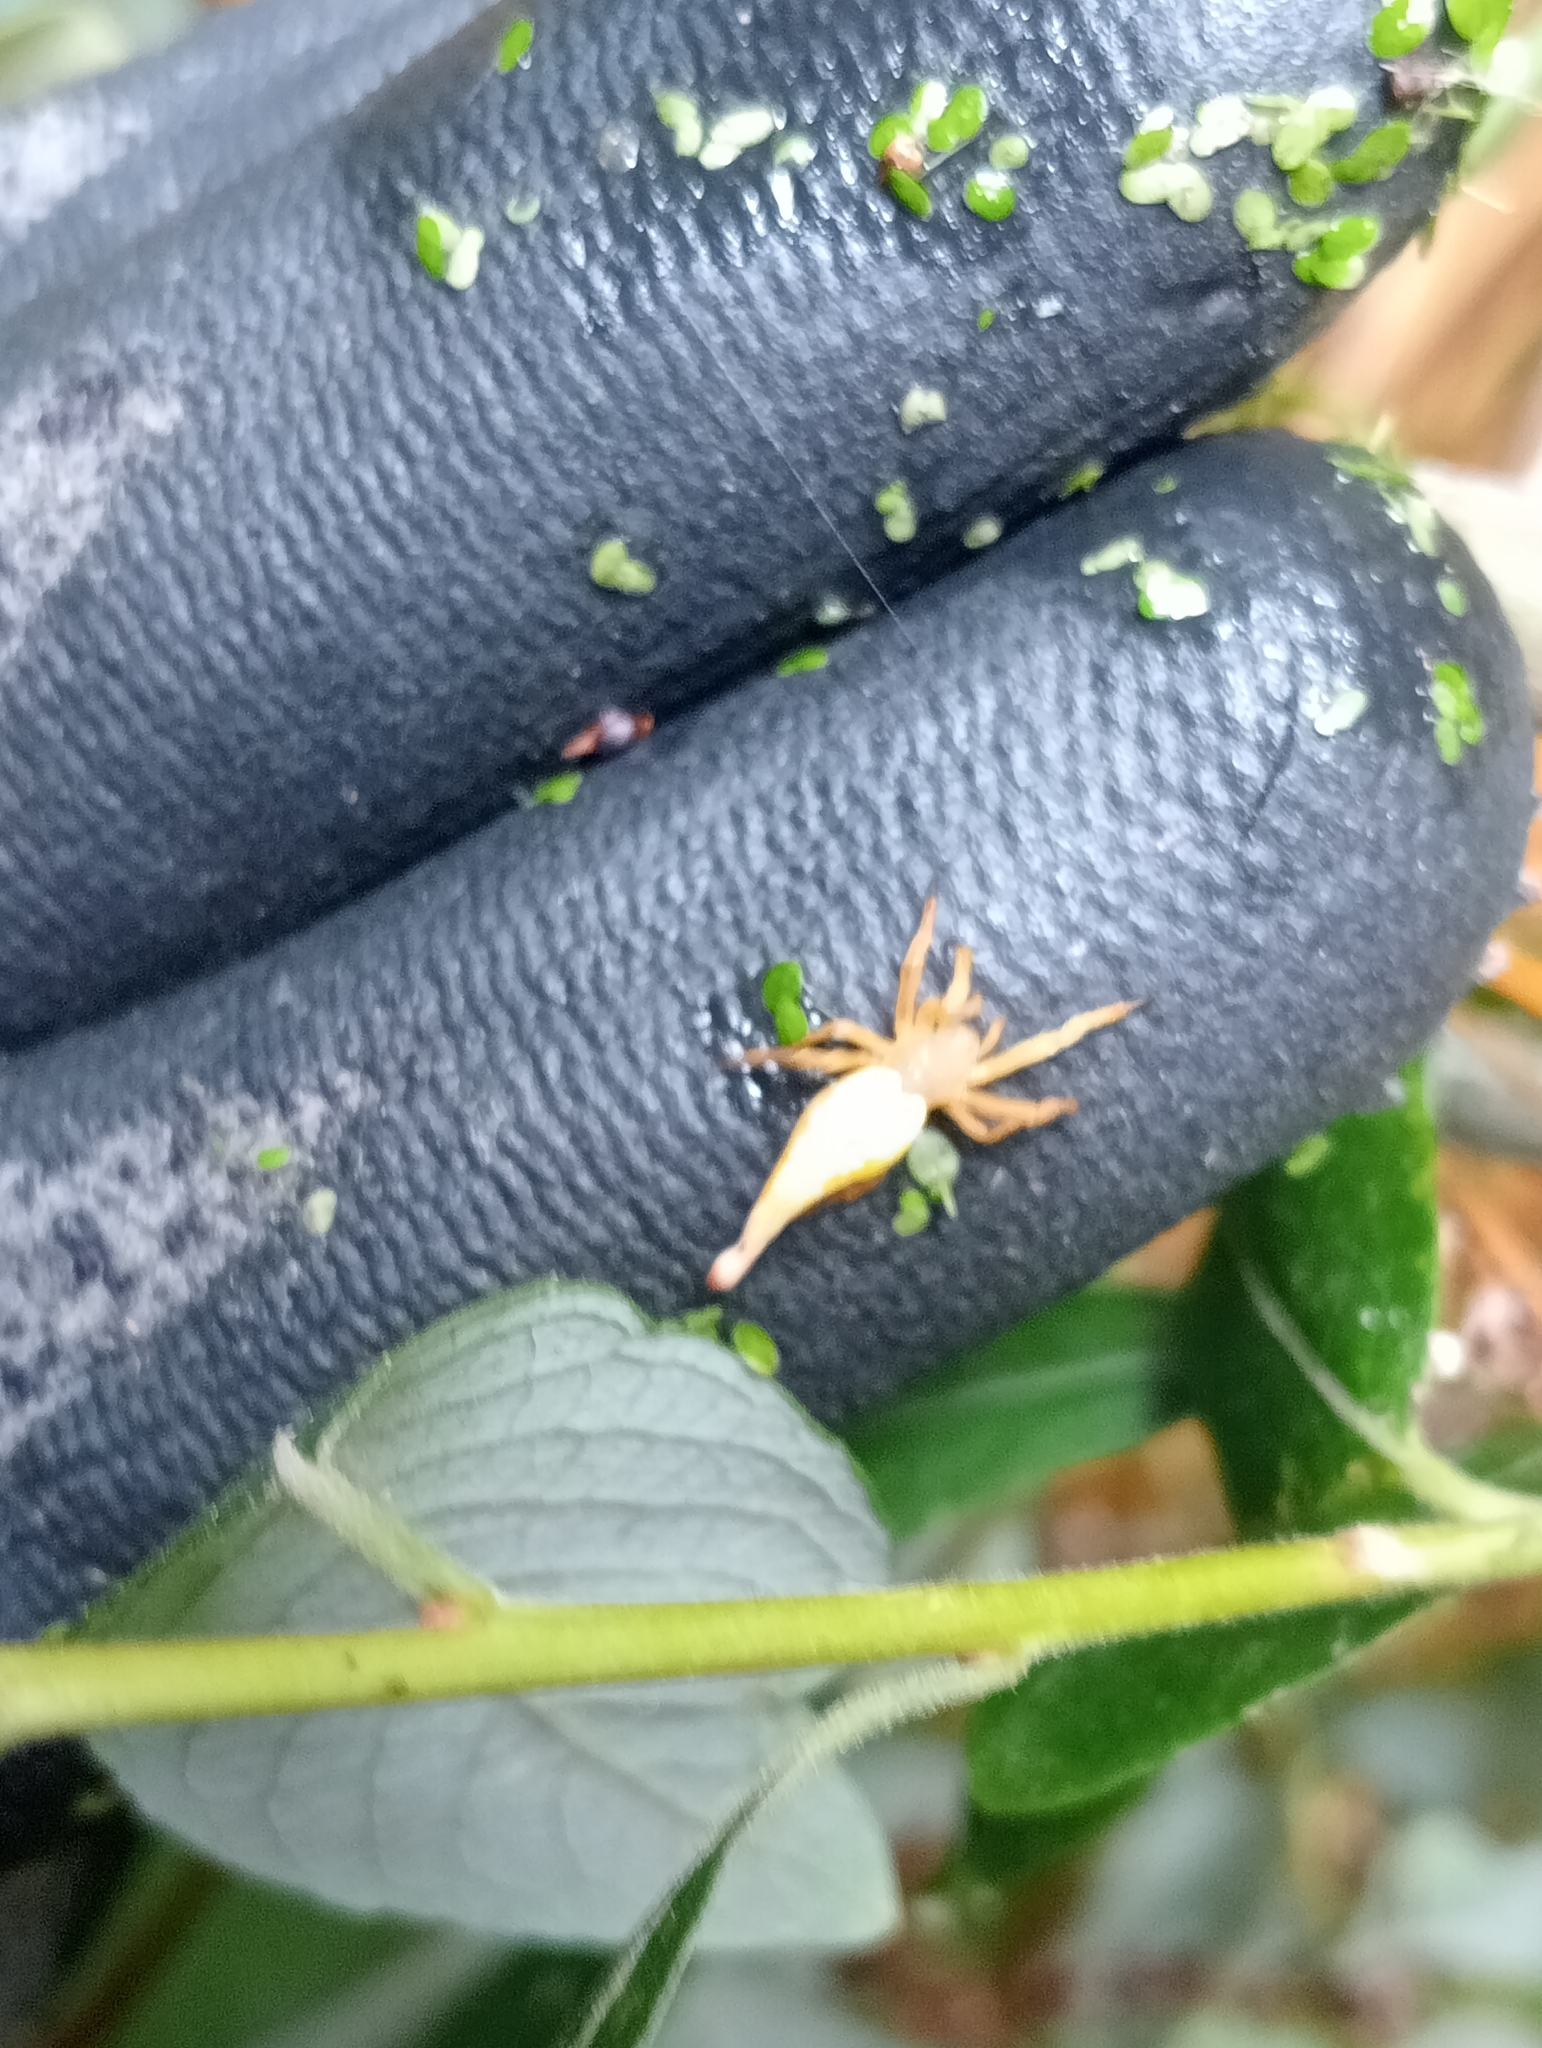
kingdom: Animalia
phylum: Arthropoda
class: Arachnida
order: Araneae
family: Araneidae
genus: Arachnura
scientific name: Arachnura feredayi
